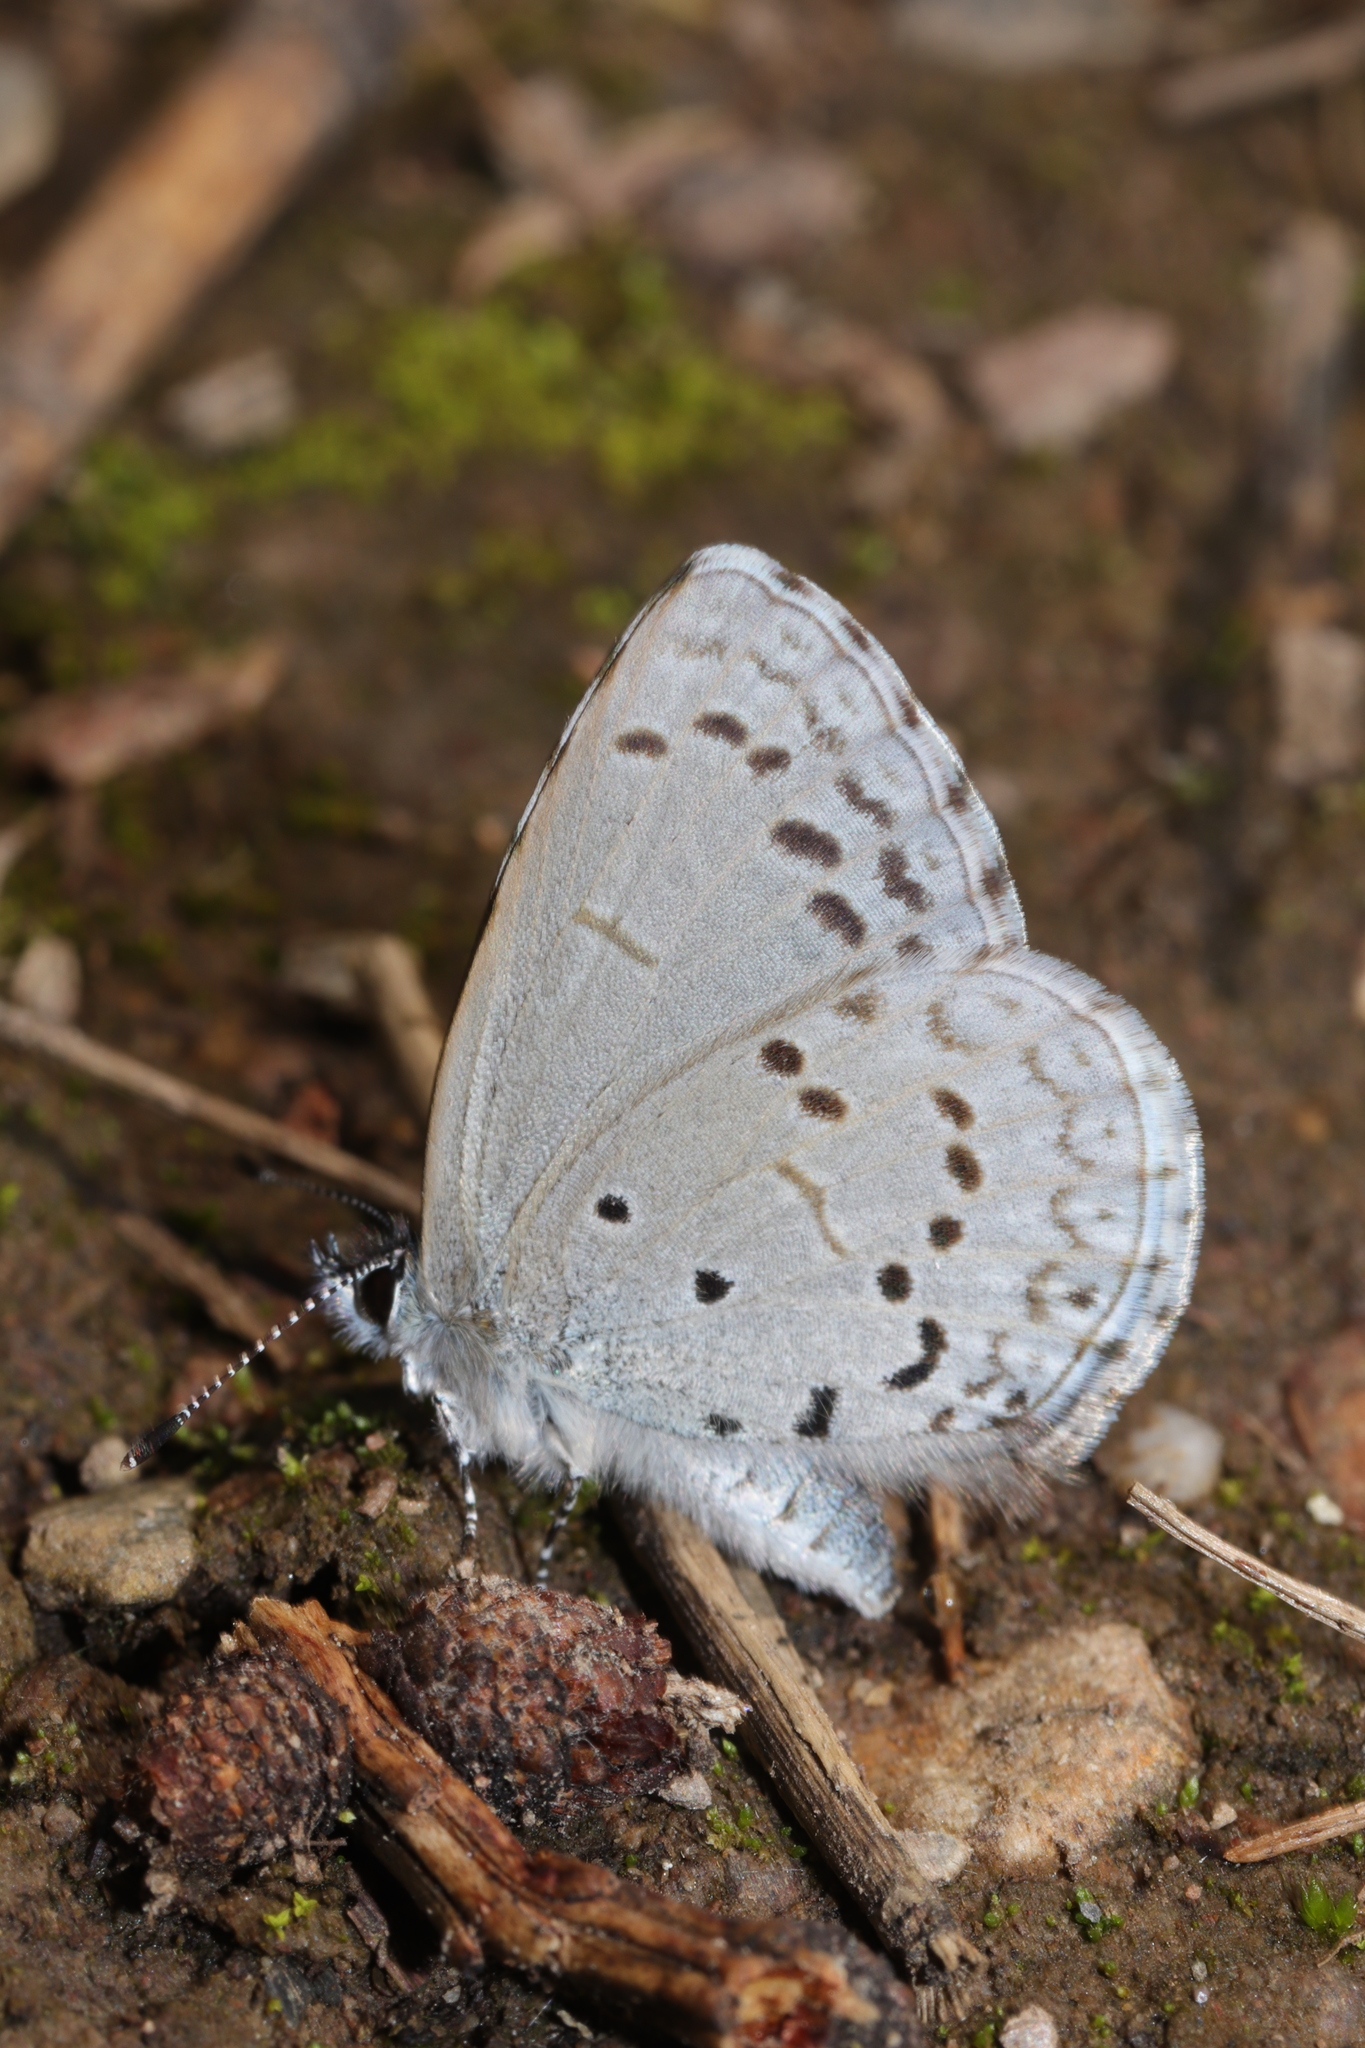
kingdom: Animalia
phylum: Arthropoda
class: Insecta
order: Lepidoptera
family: Lycaenidae
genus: Celastrina
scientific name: Celastrina ladon
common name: Spring azure
